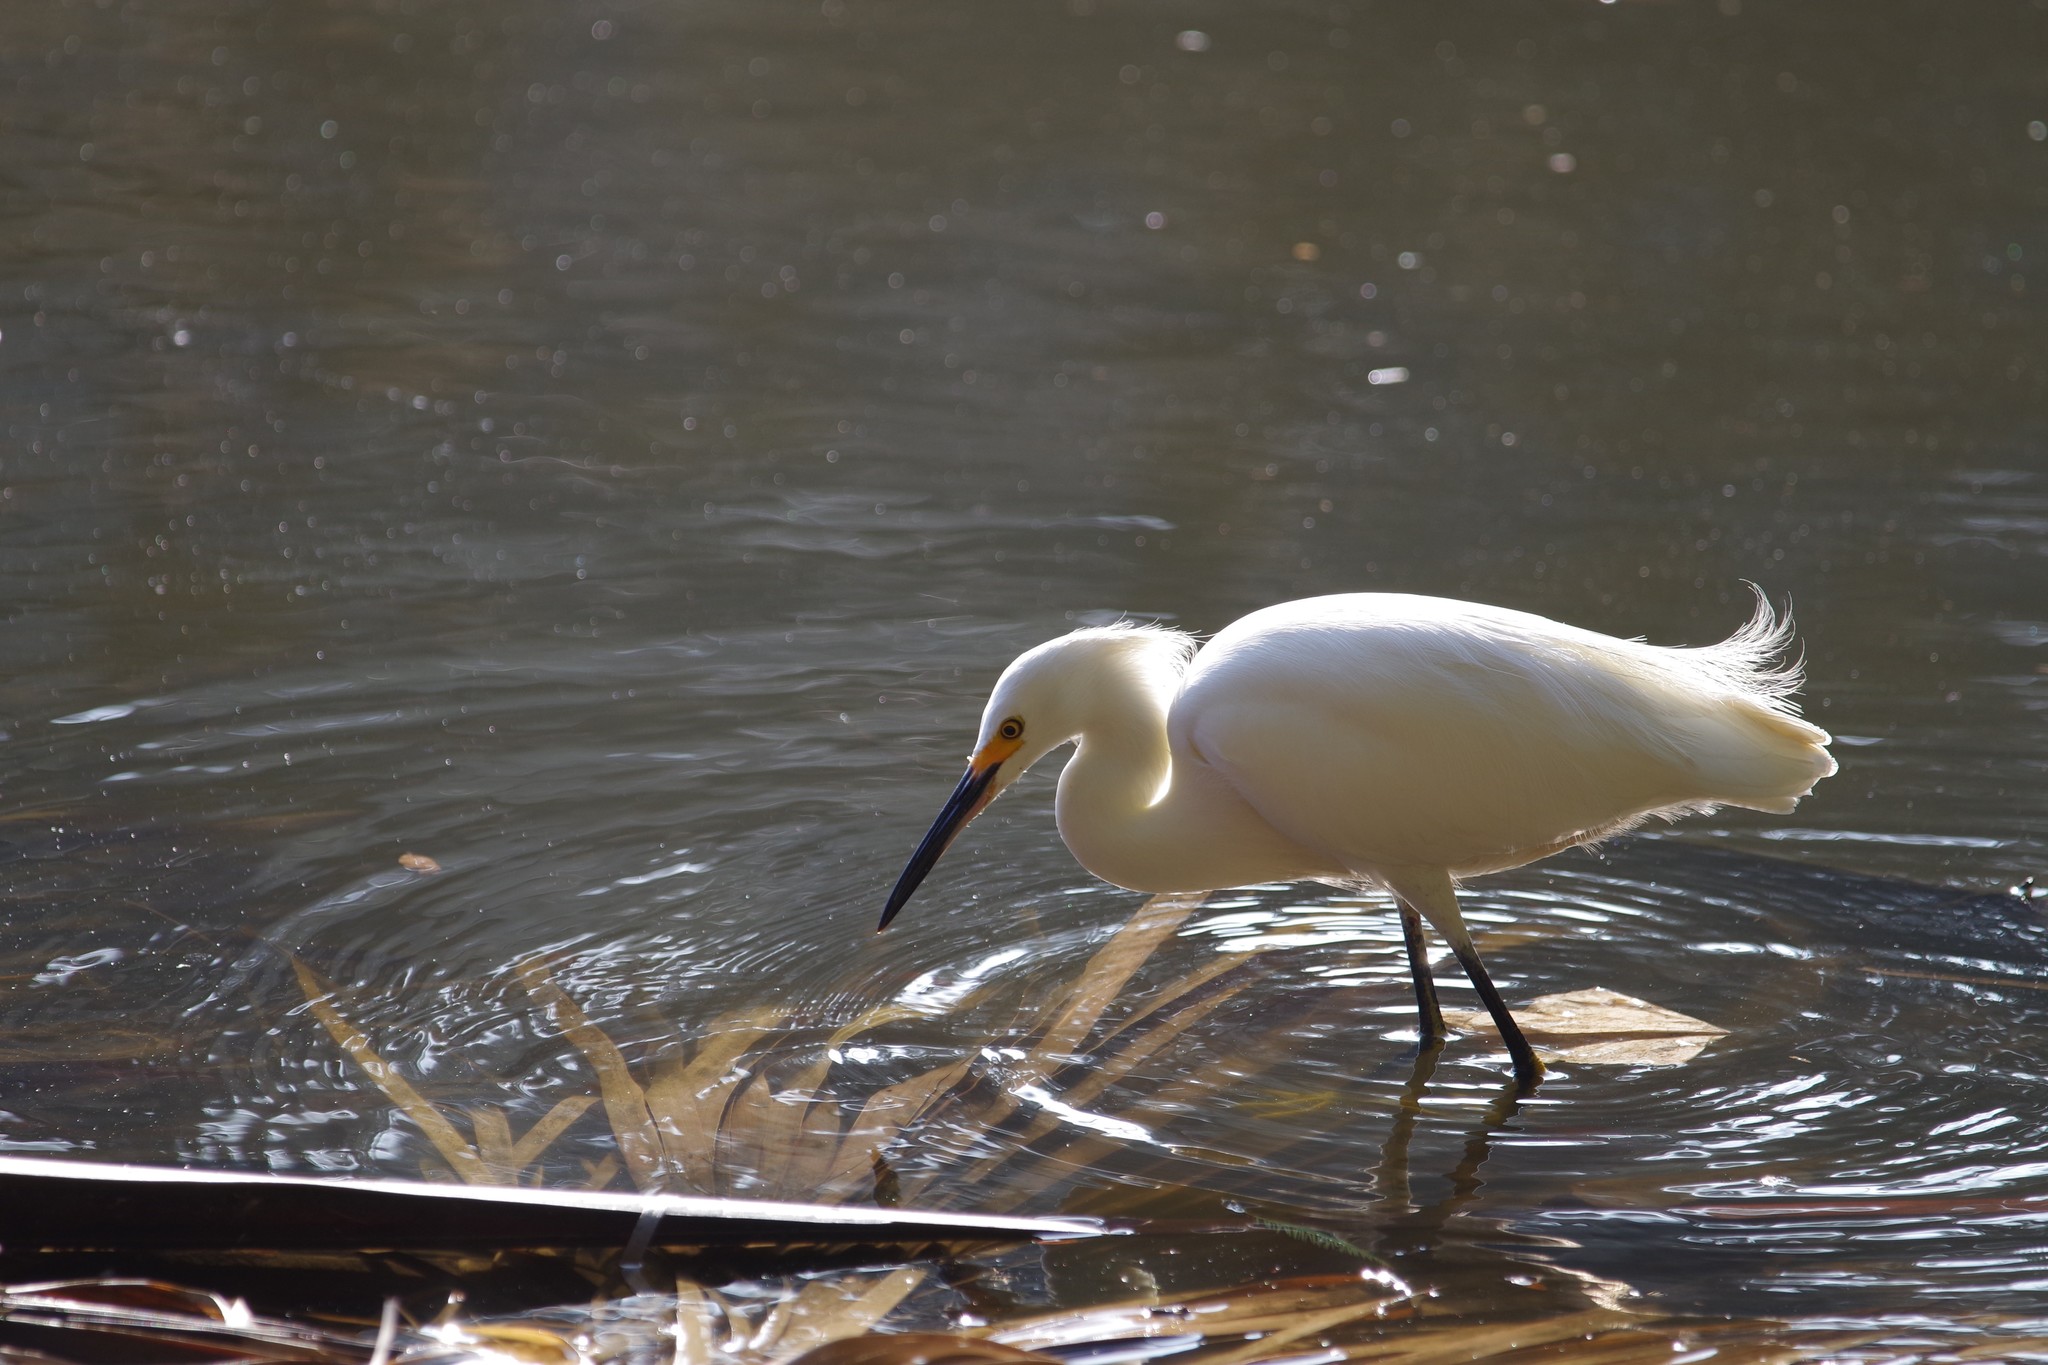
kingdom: Animalia
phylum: Chordata
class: Aves
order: Pelecaniformes
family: Ardeidae
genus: Egretta
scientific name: Egretta thula
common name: Snowy egret
